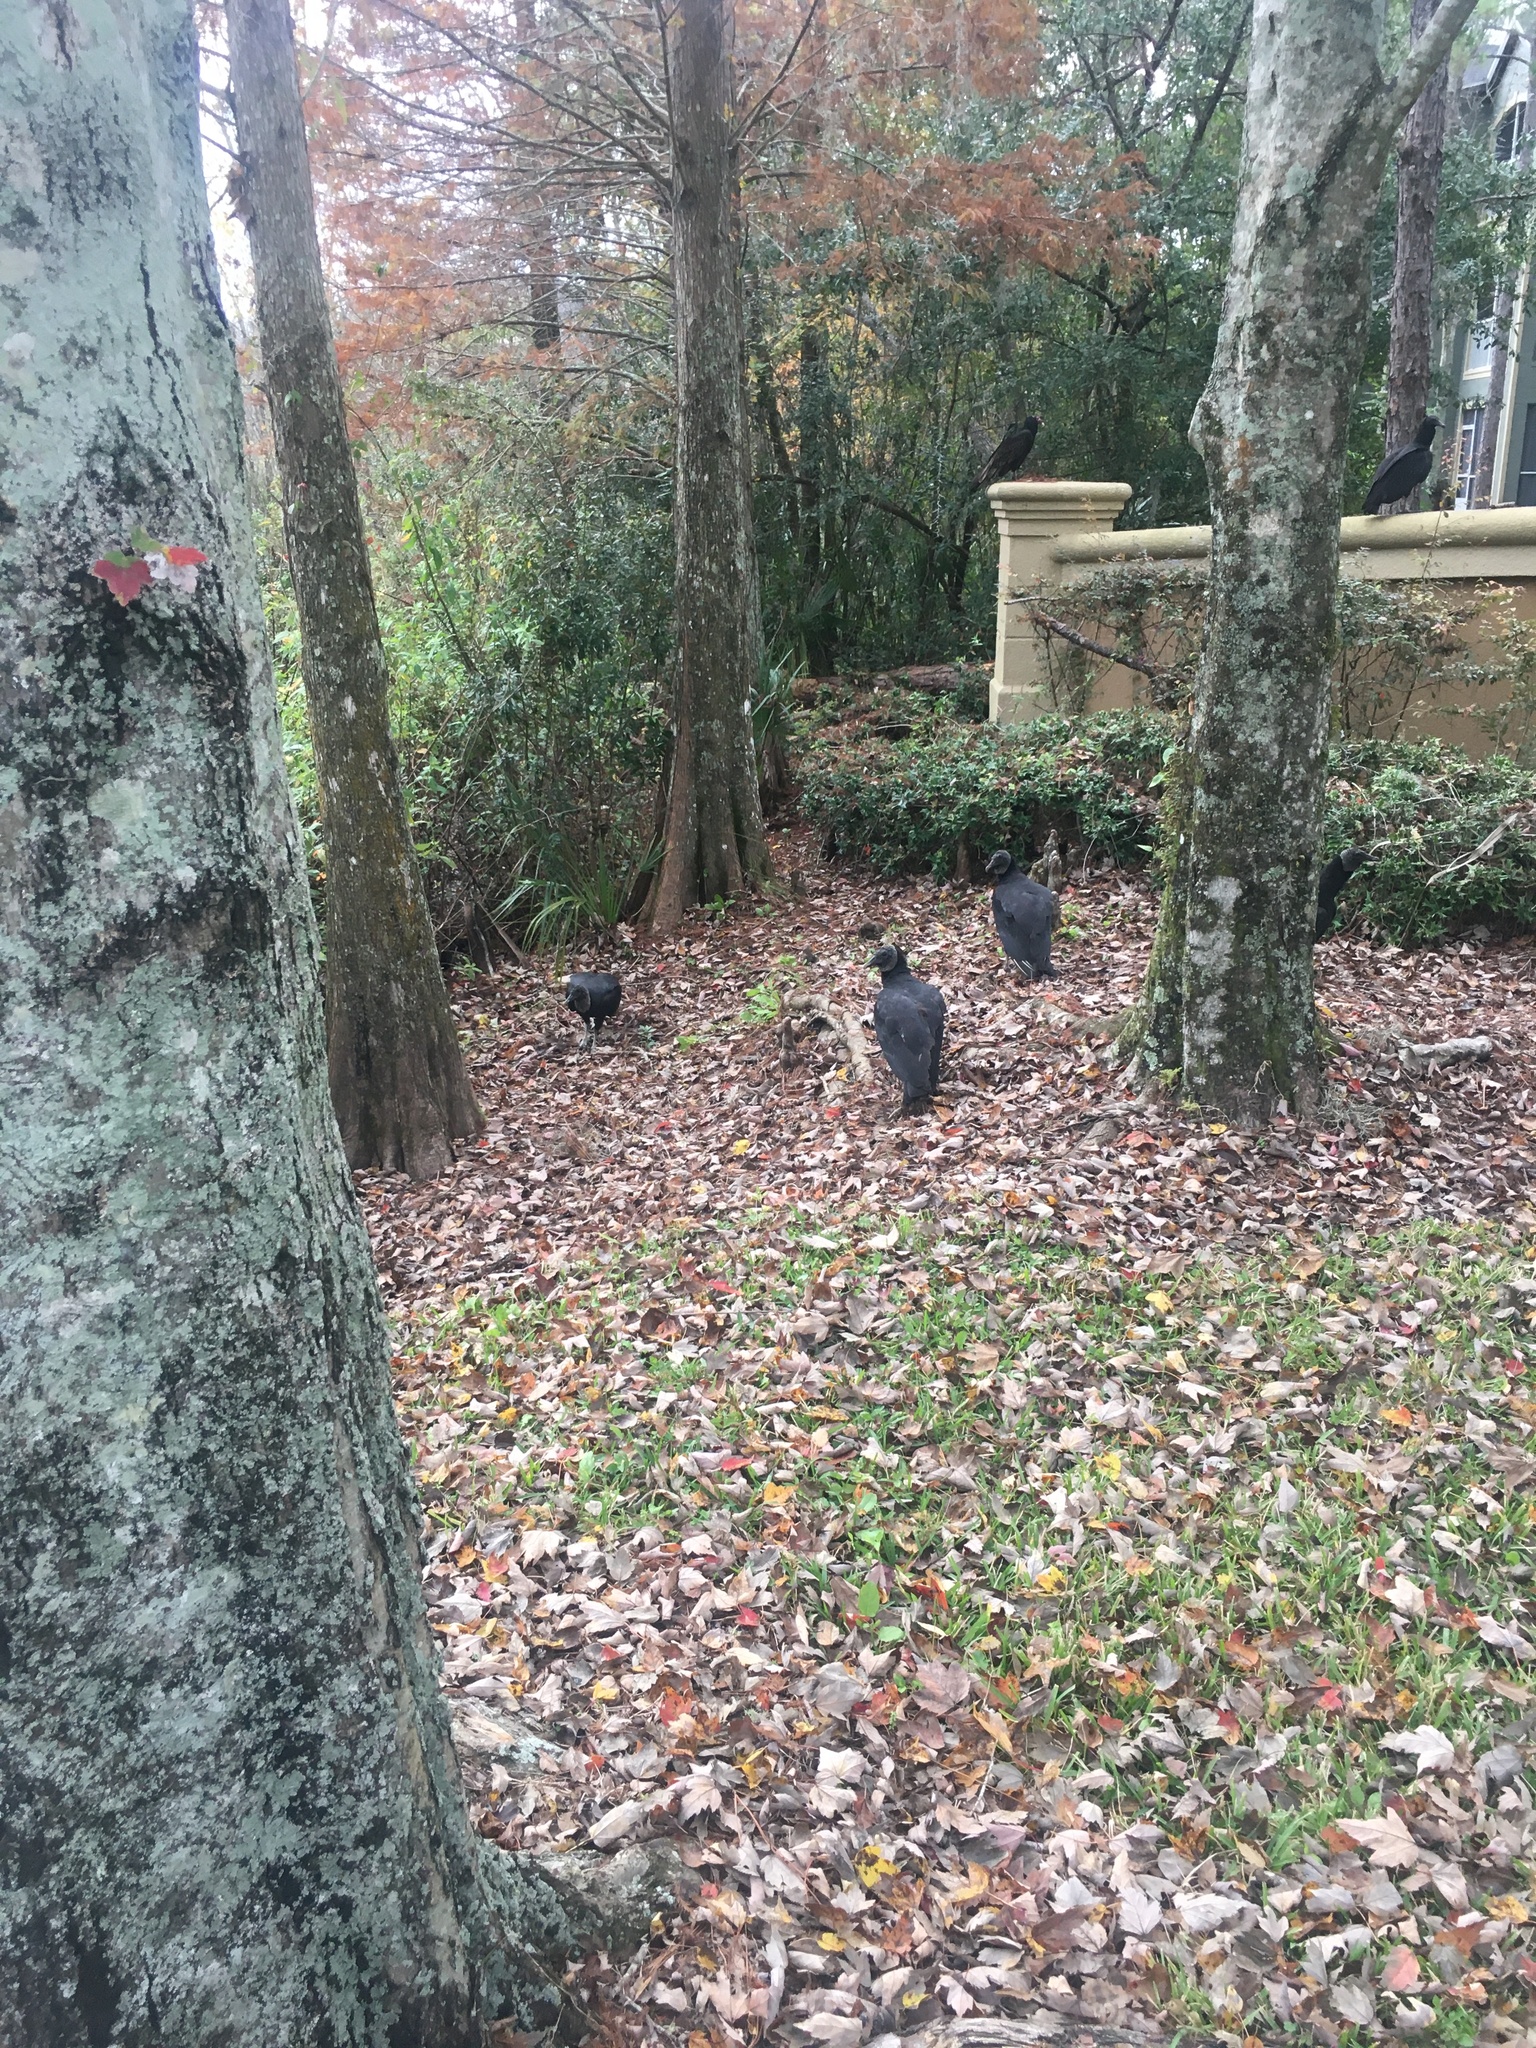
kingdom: Animalia
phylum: Chordata
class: Aves
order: Accipitriformes
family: Cathartidae
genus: Cathartes
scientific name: Cathartes aura
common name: Turkey vulture
